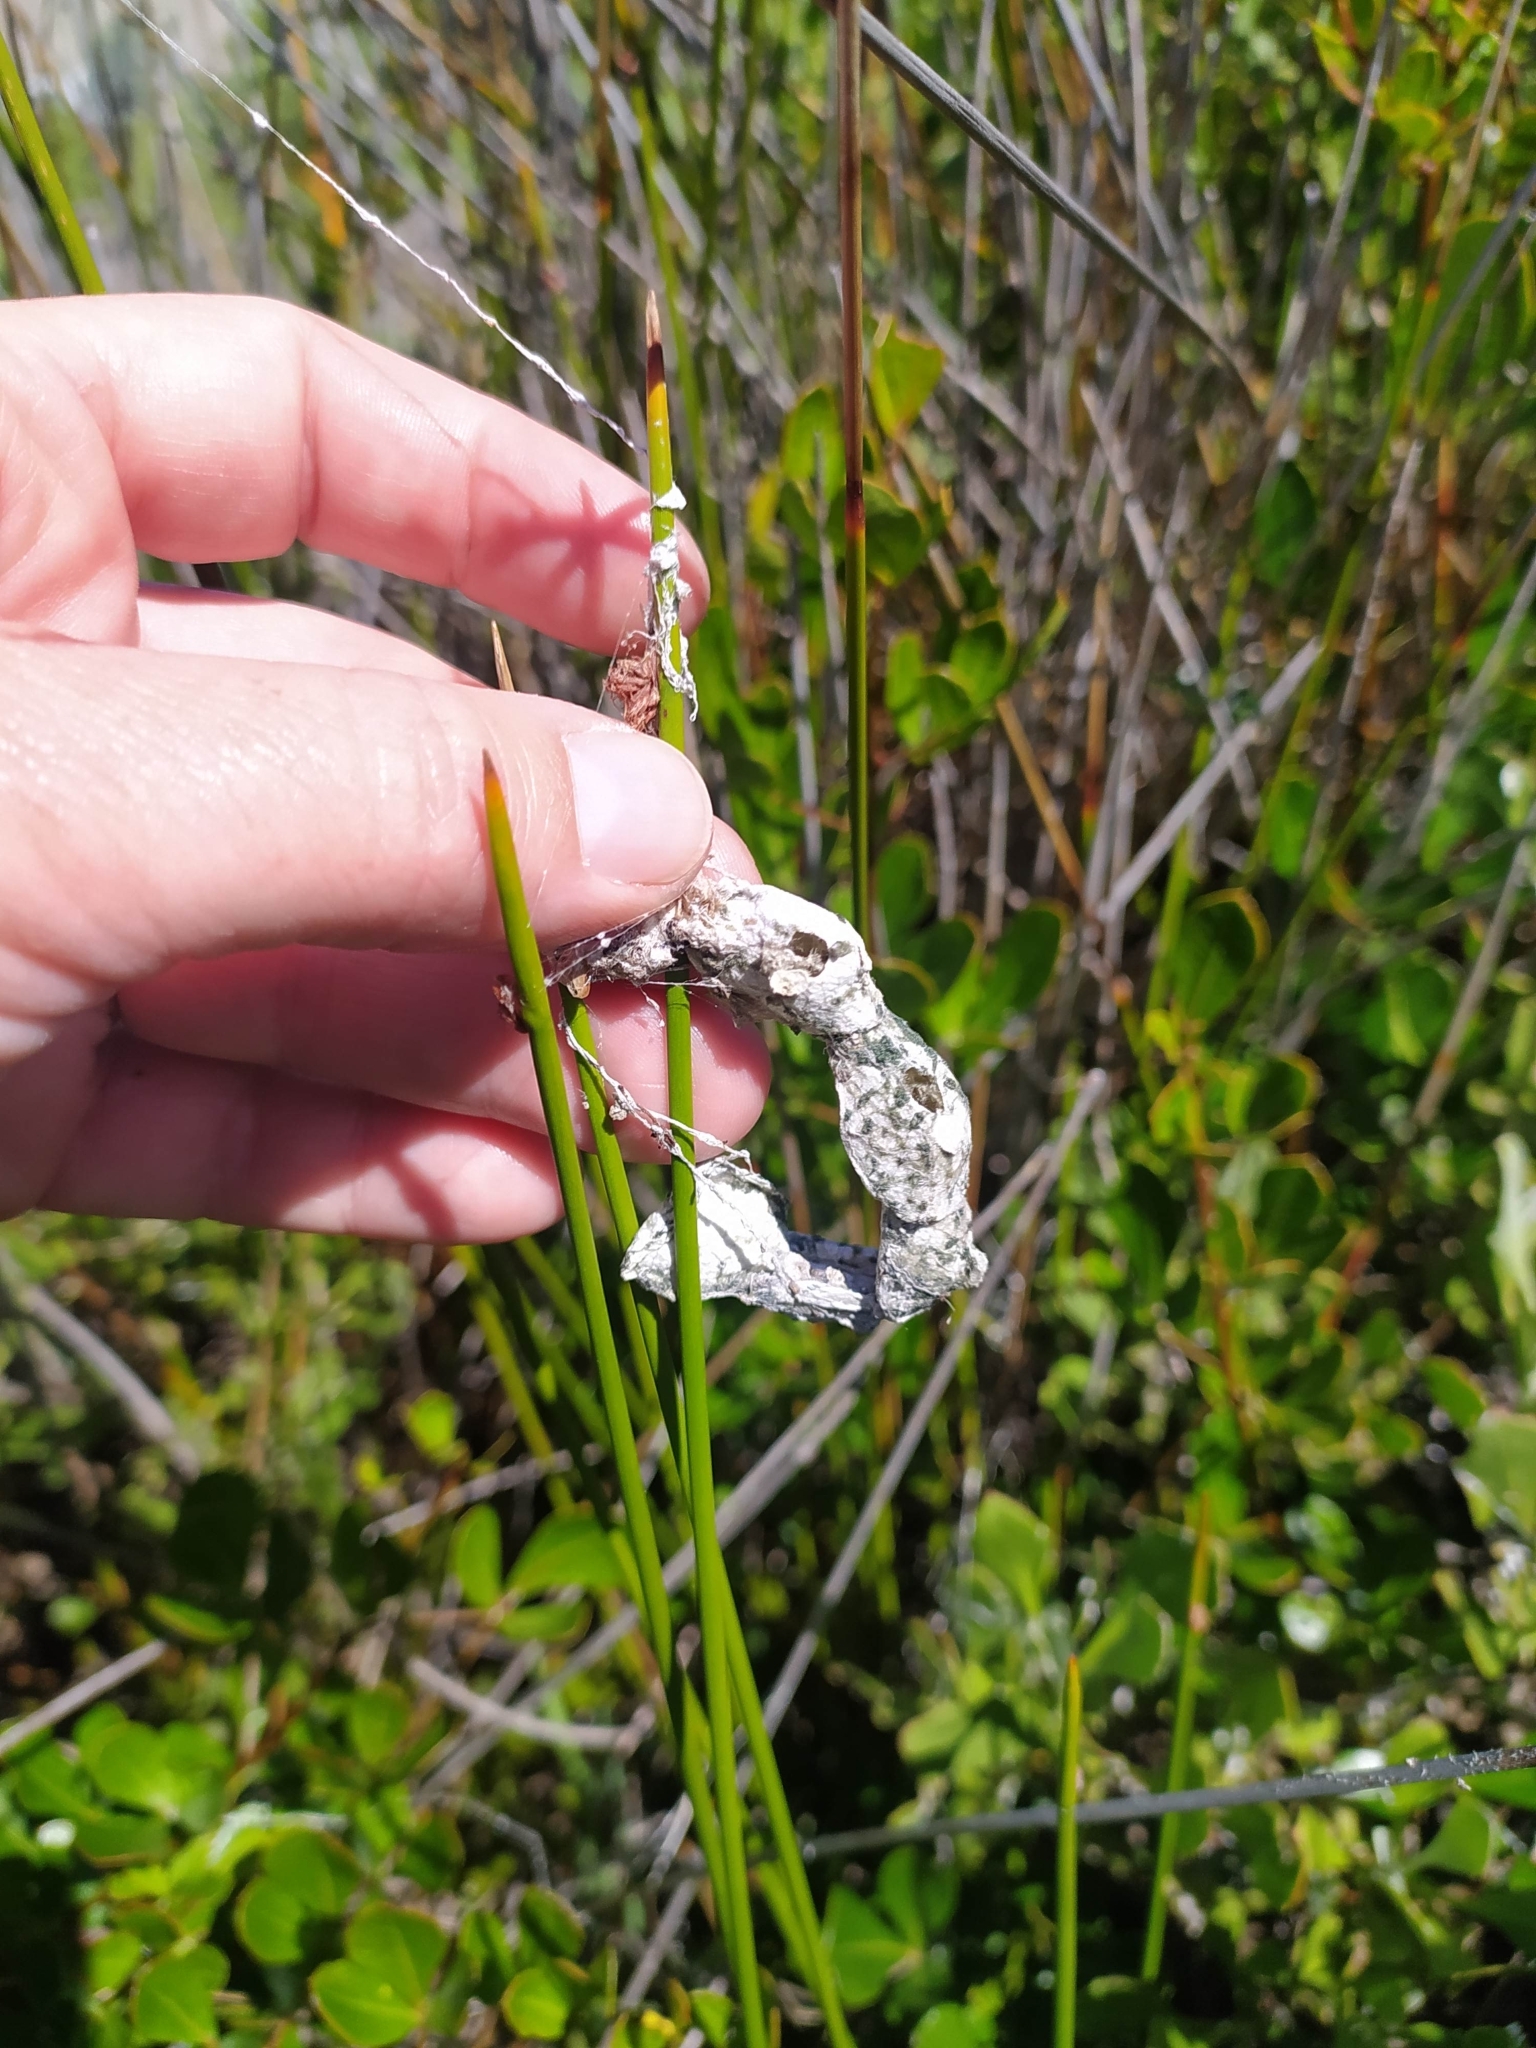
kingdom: Animalia
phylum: Arthropoda
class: Arachnida
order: Araneae
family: Araneidae
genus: Cyrtophora
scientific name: Cyrtophora citricola
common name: Orb weavers
